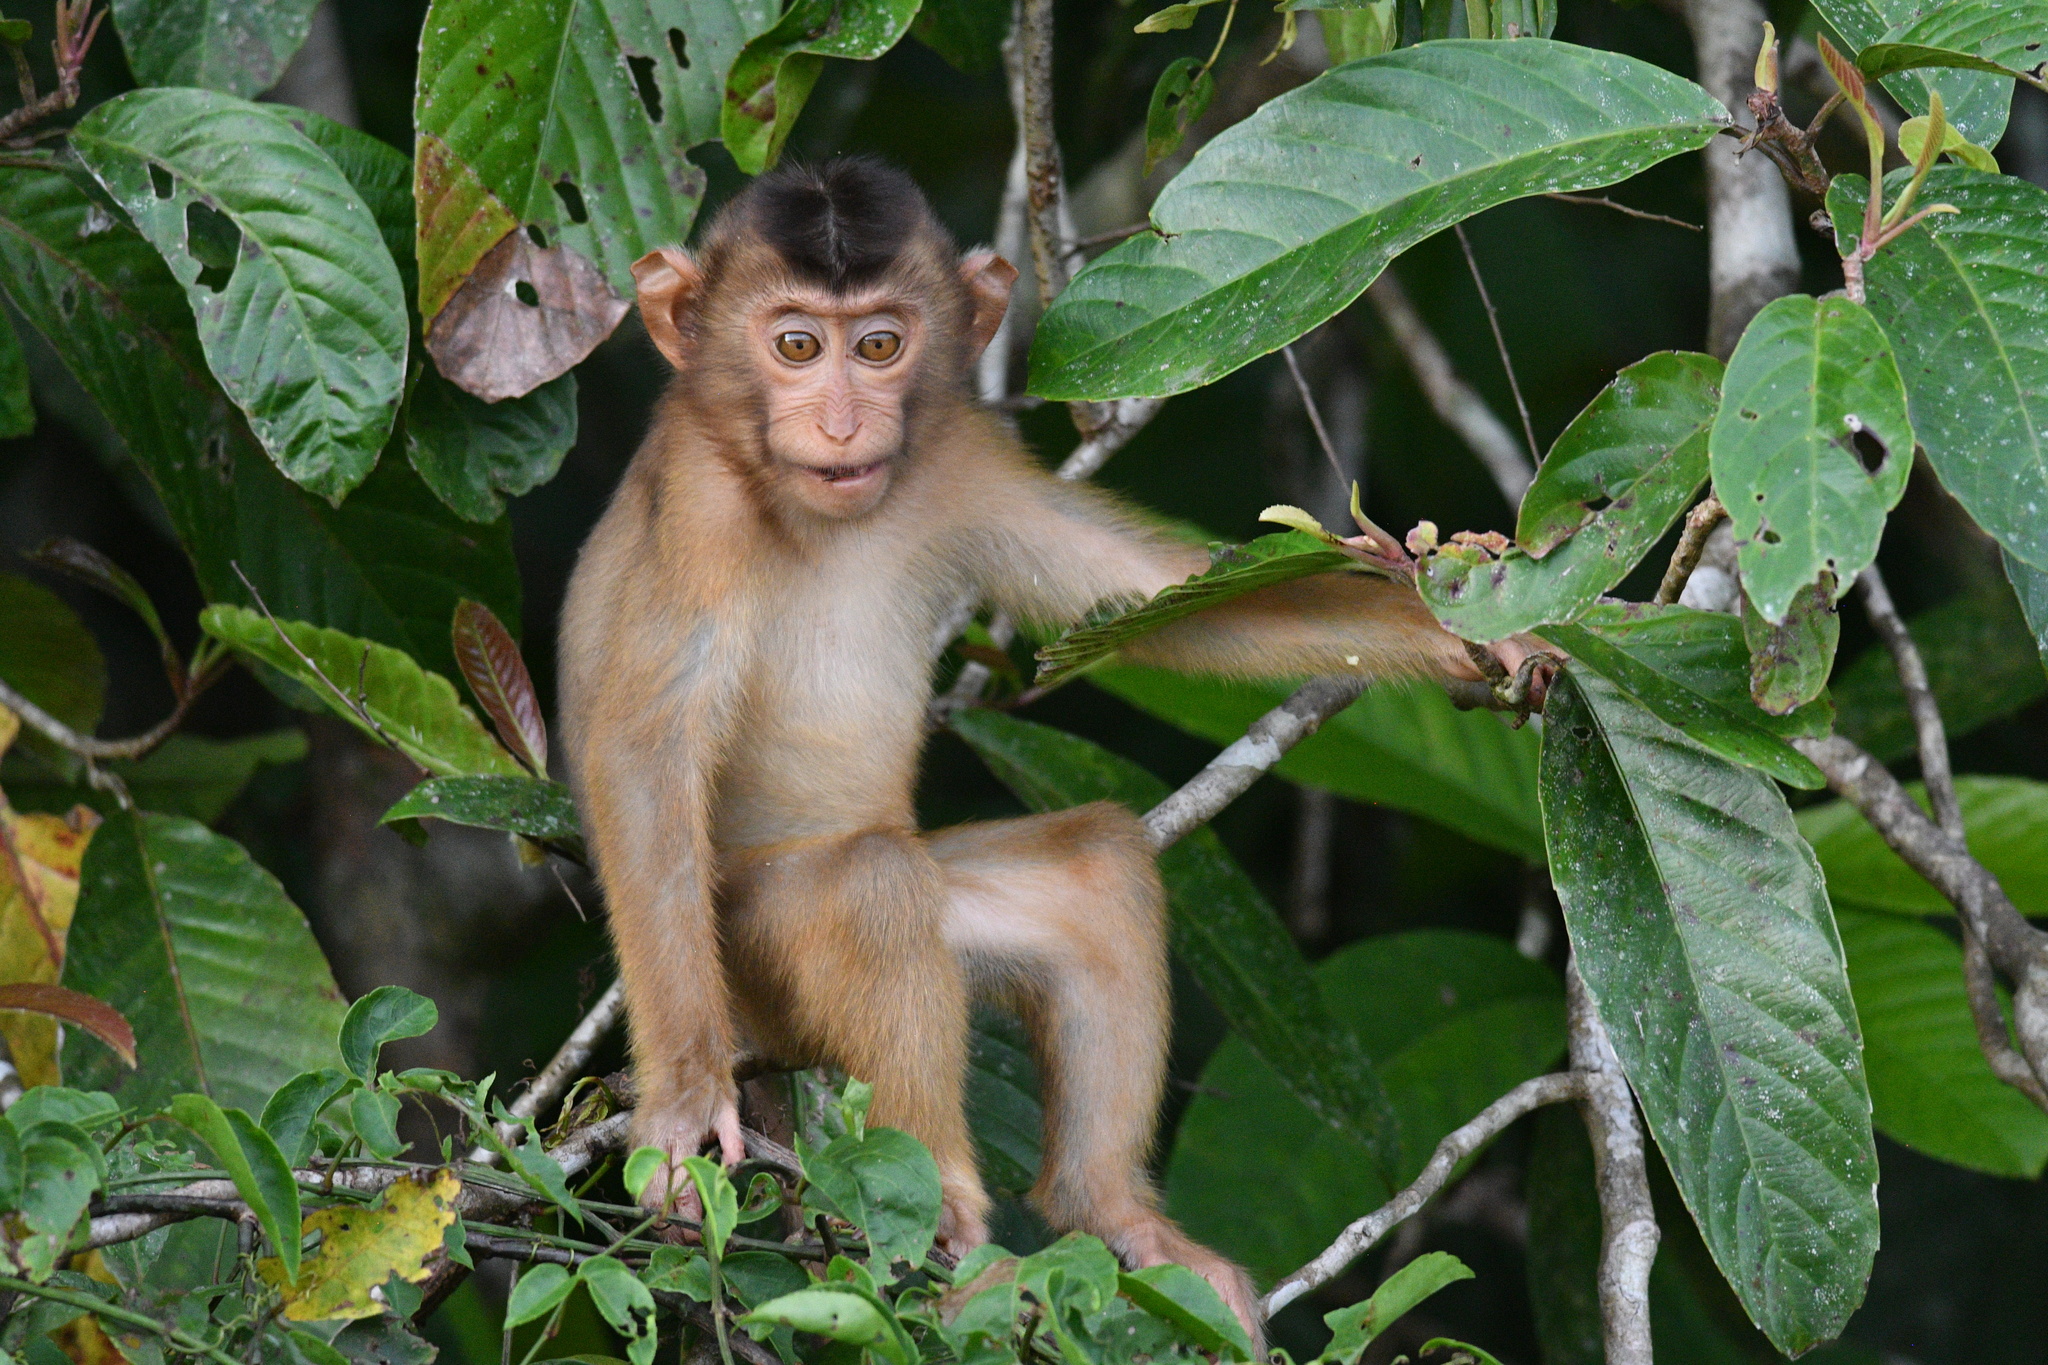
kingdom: Animalia
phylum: Chordata
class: Mammalia
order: Primates
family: Cercopithecidae
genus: Macaca
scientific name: Macaca nemestrina
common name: Southern pig-tailed macaque
